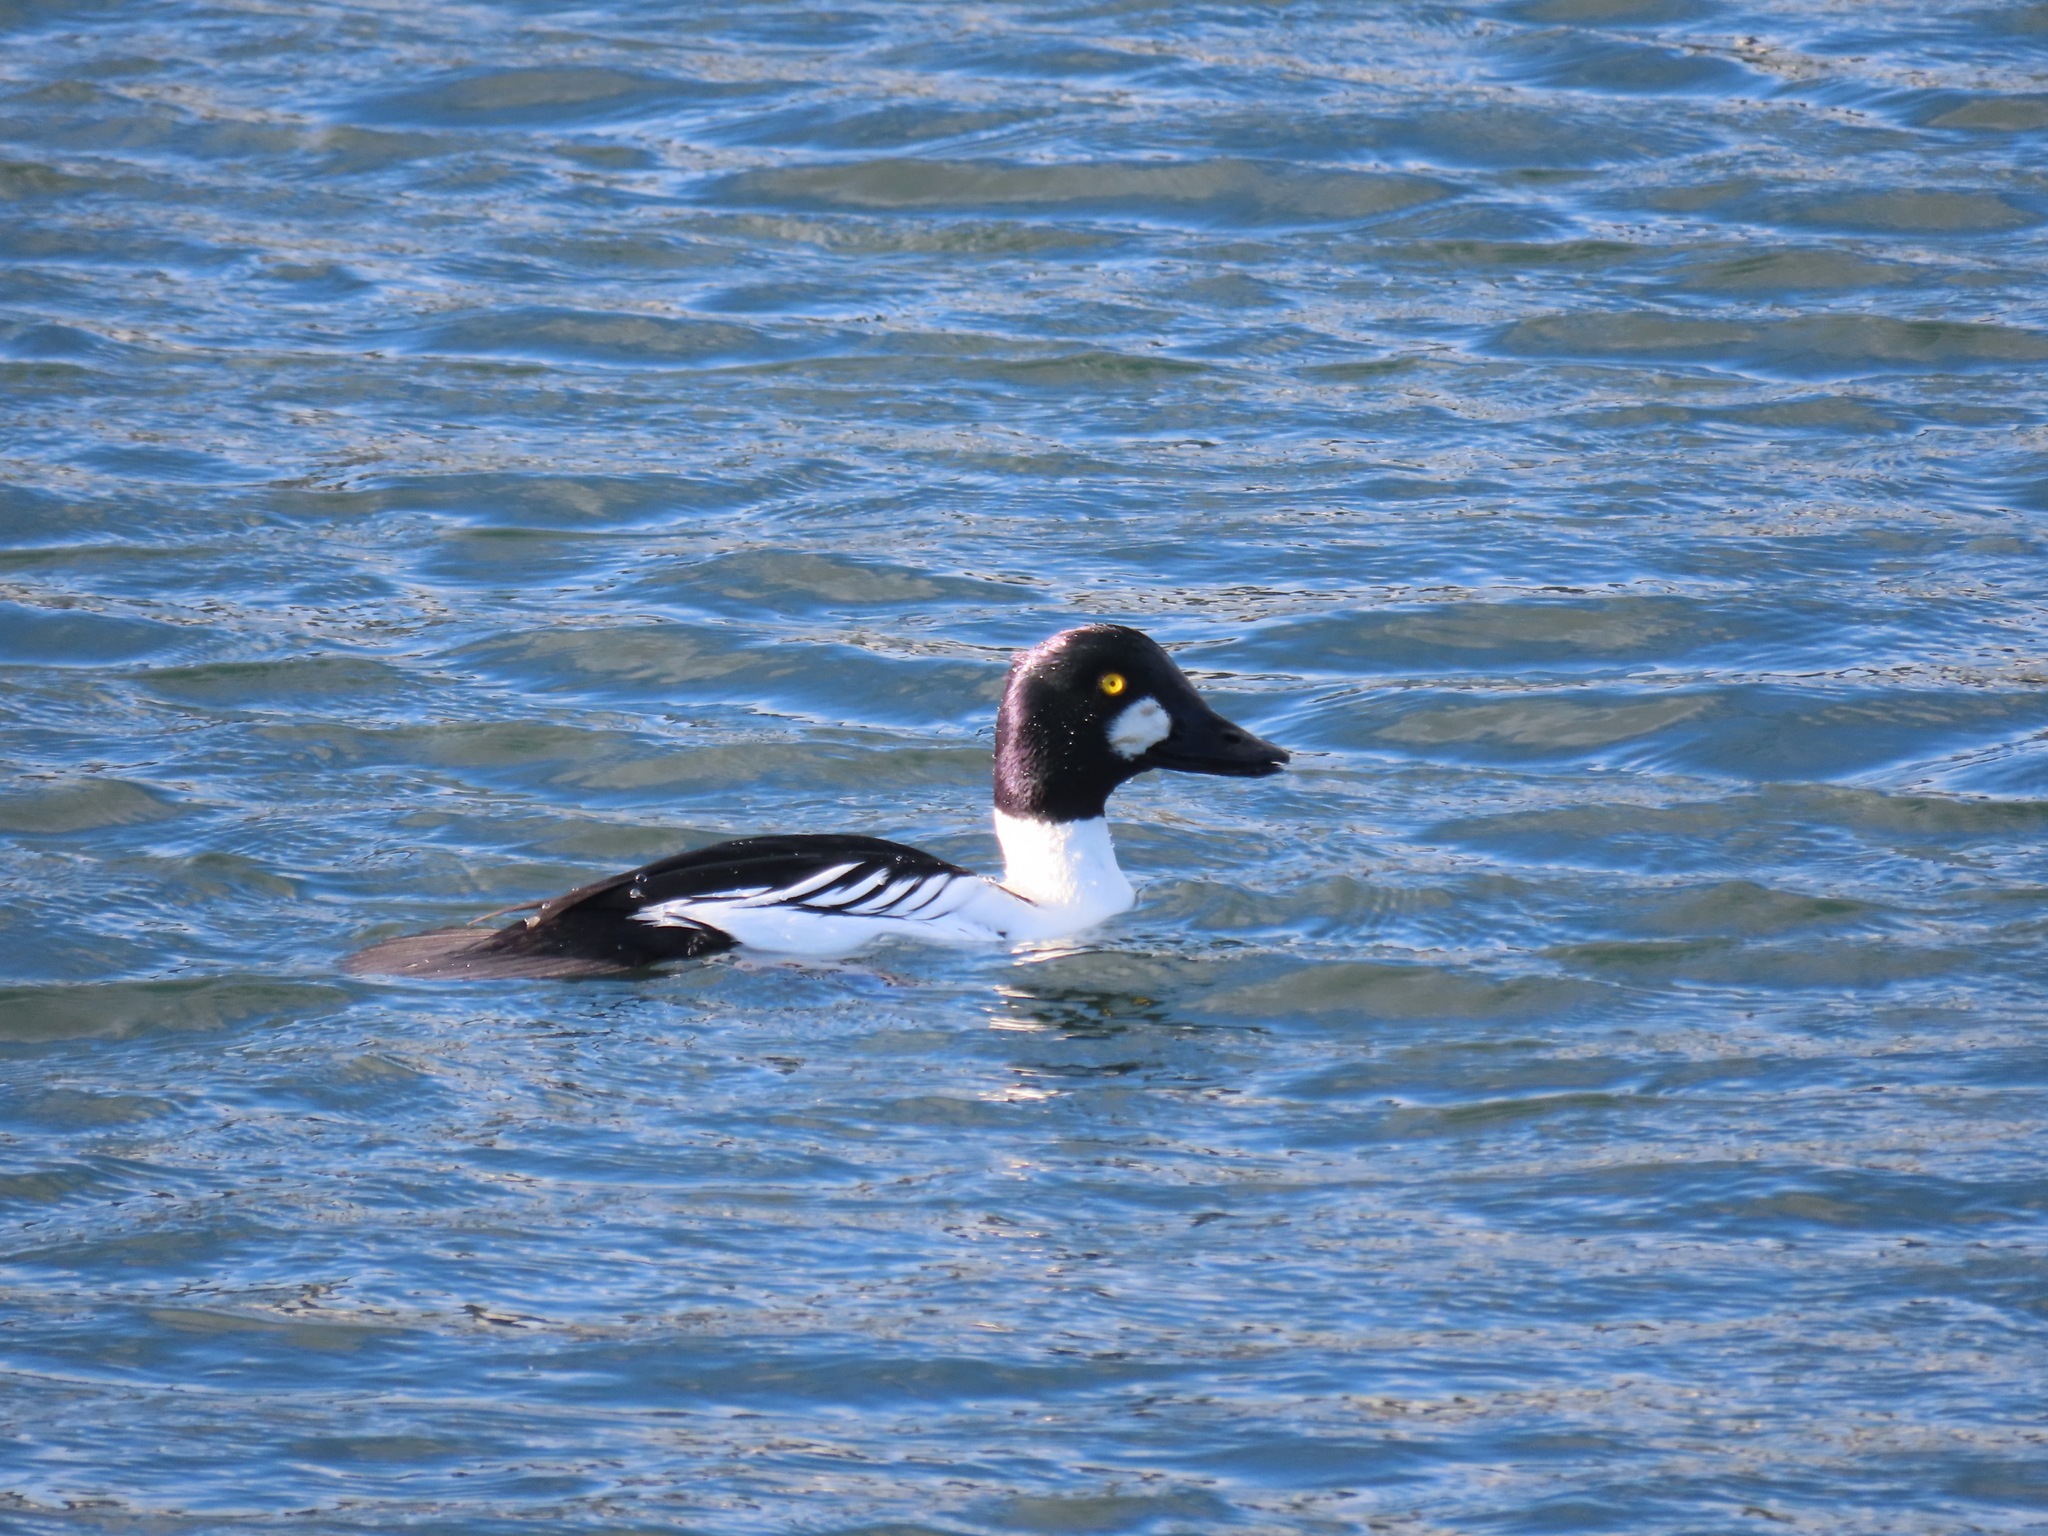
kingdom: Animalia
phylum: Chordata
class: Aves
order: Anseriformes
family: Anatidae
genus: Bucephala
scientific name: Bucephala clangula
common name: Common goldeneye
